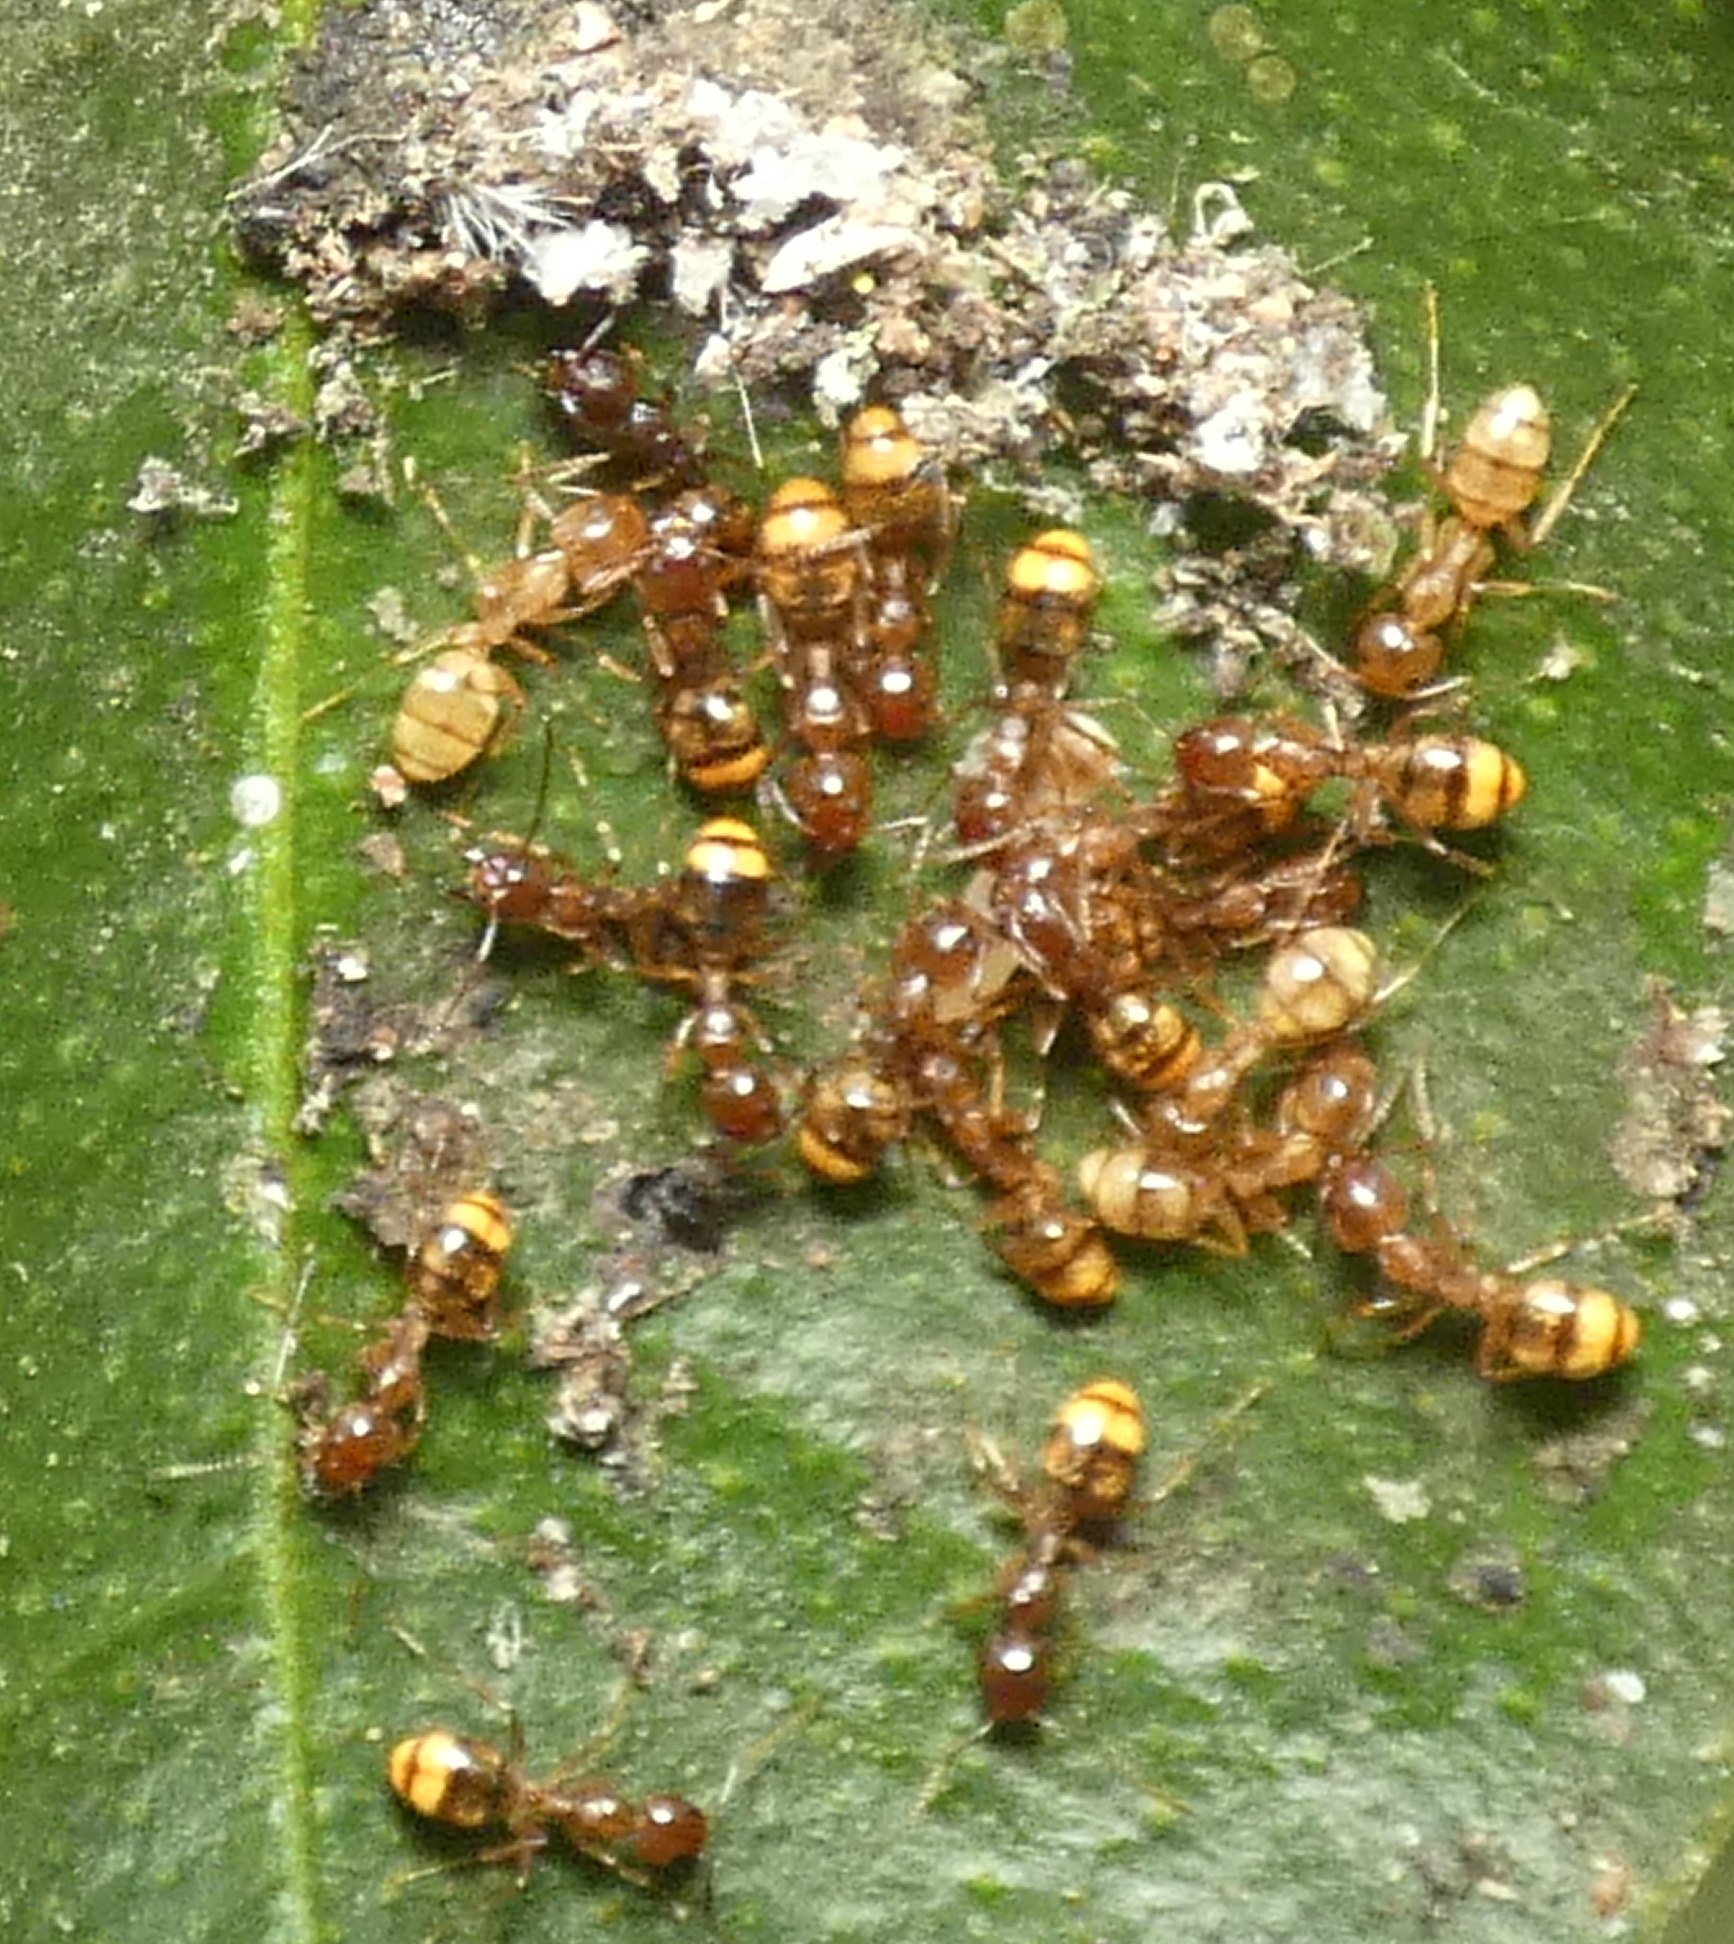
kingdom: Animalia
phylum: Arthropoda
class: Insecta
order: Hymenoptera
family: Formicidae
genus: Dolichoderus
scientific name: Dolichoderus lutosus
